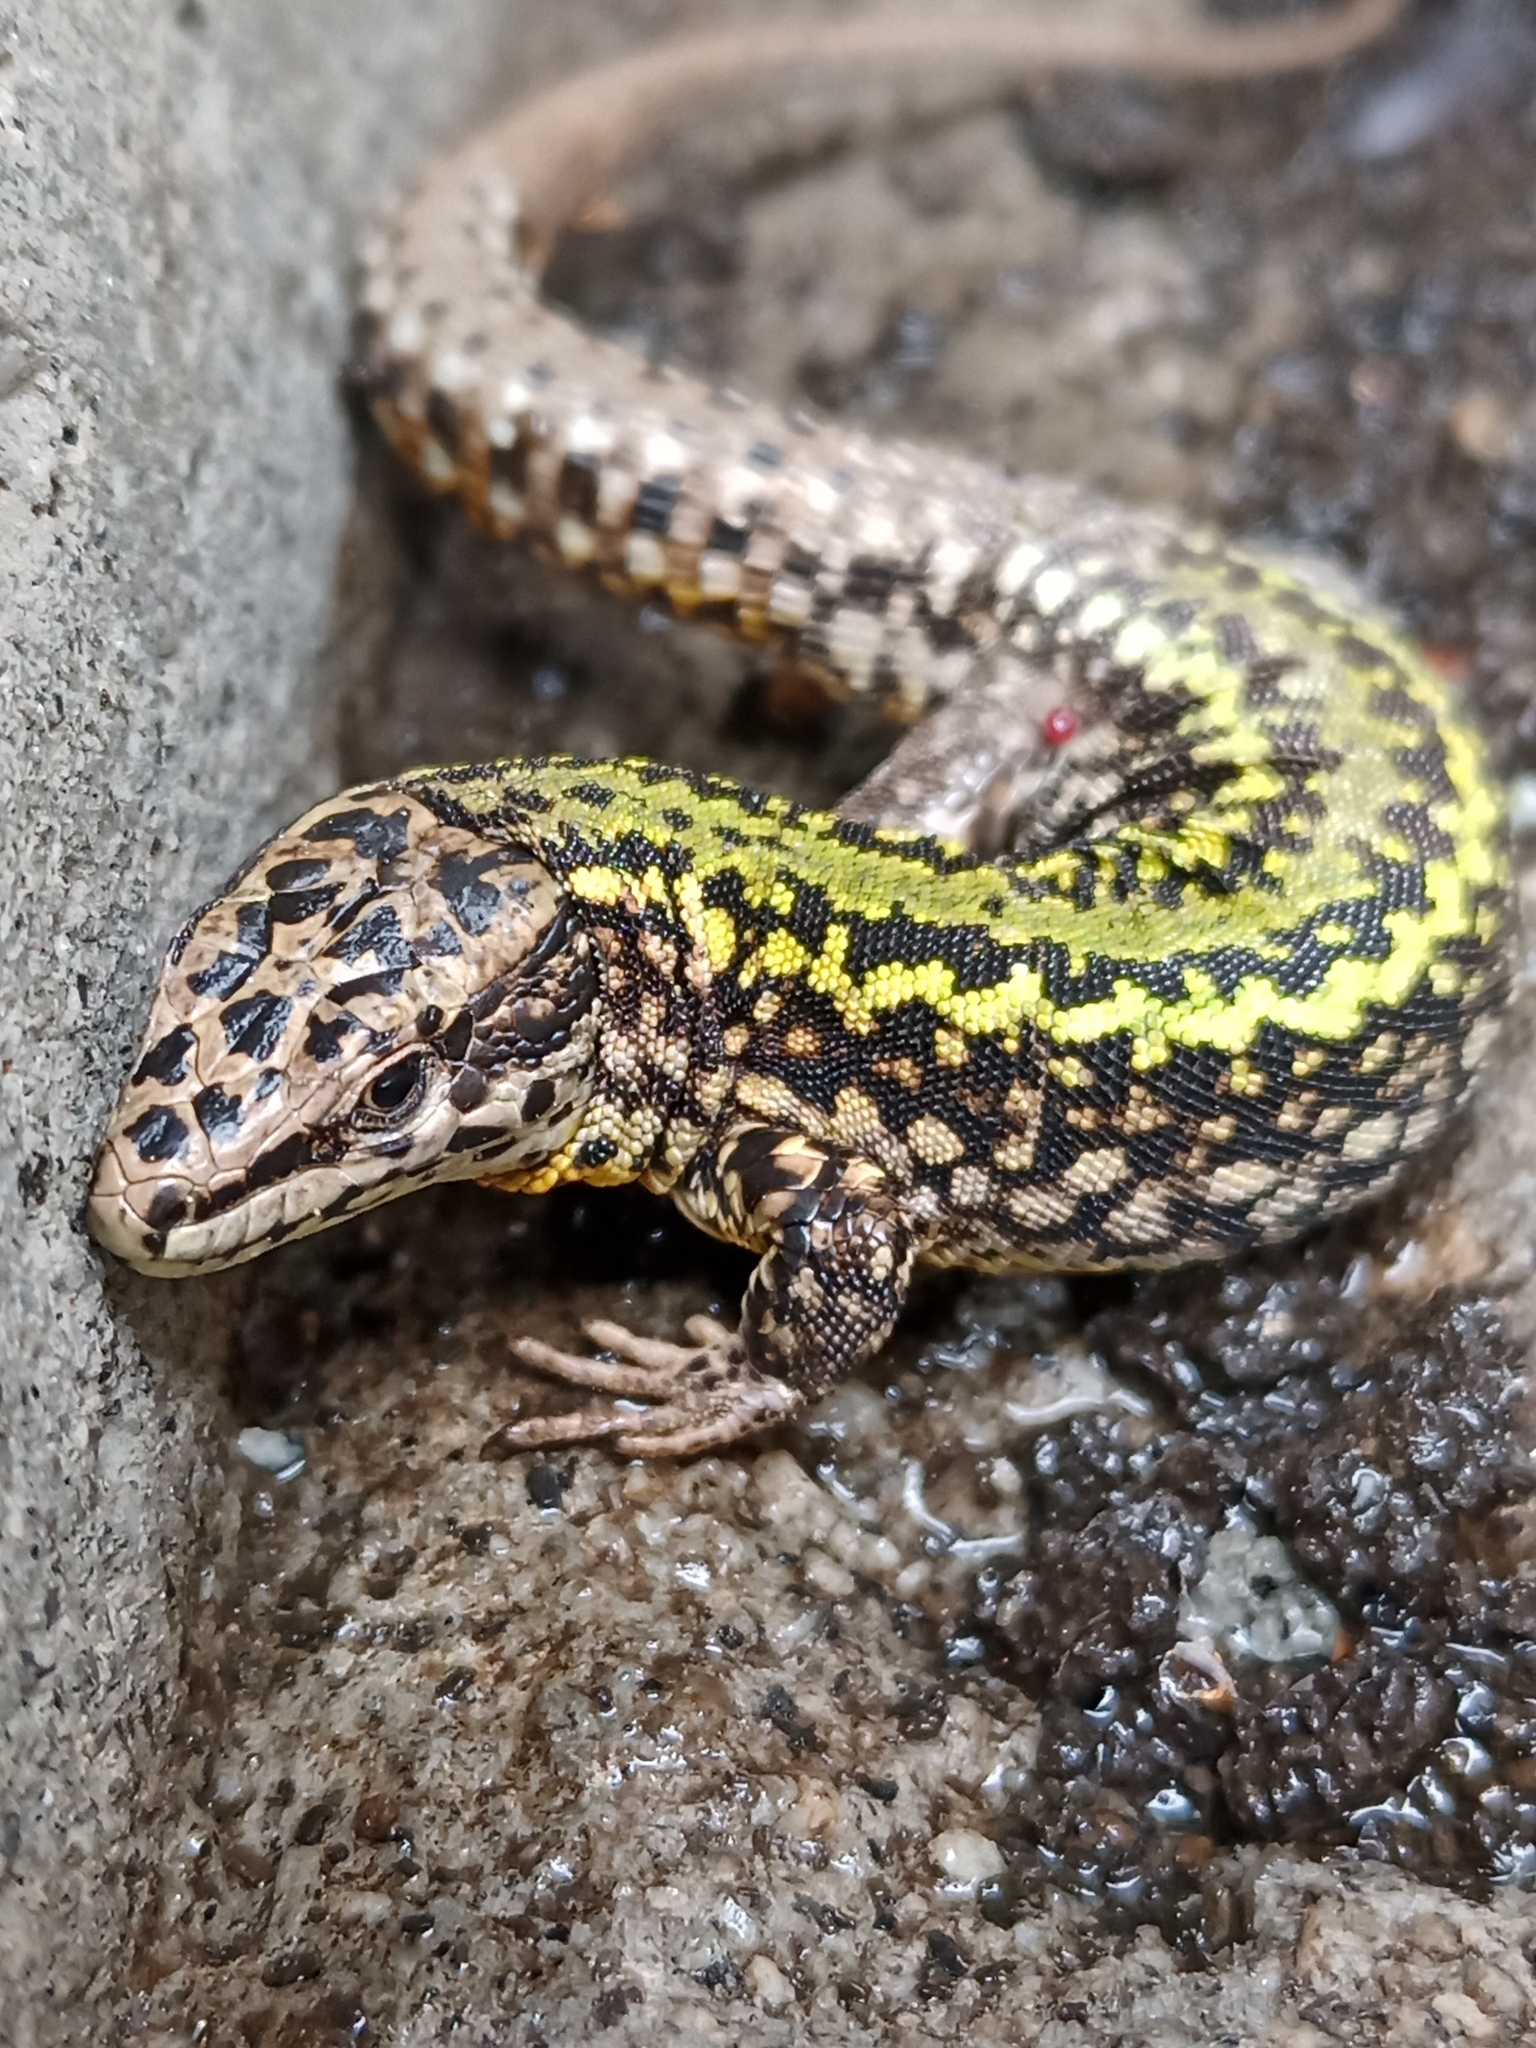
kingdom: Animalia
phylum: Chordata
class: Squamata
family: Lacertidae
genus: Podarcis
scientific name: Podarcis bocagei
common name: Bocage's wall lizard
